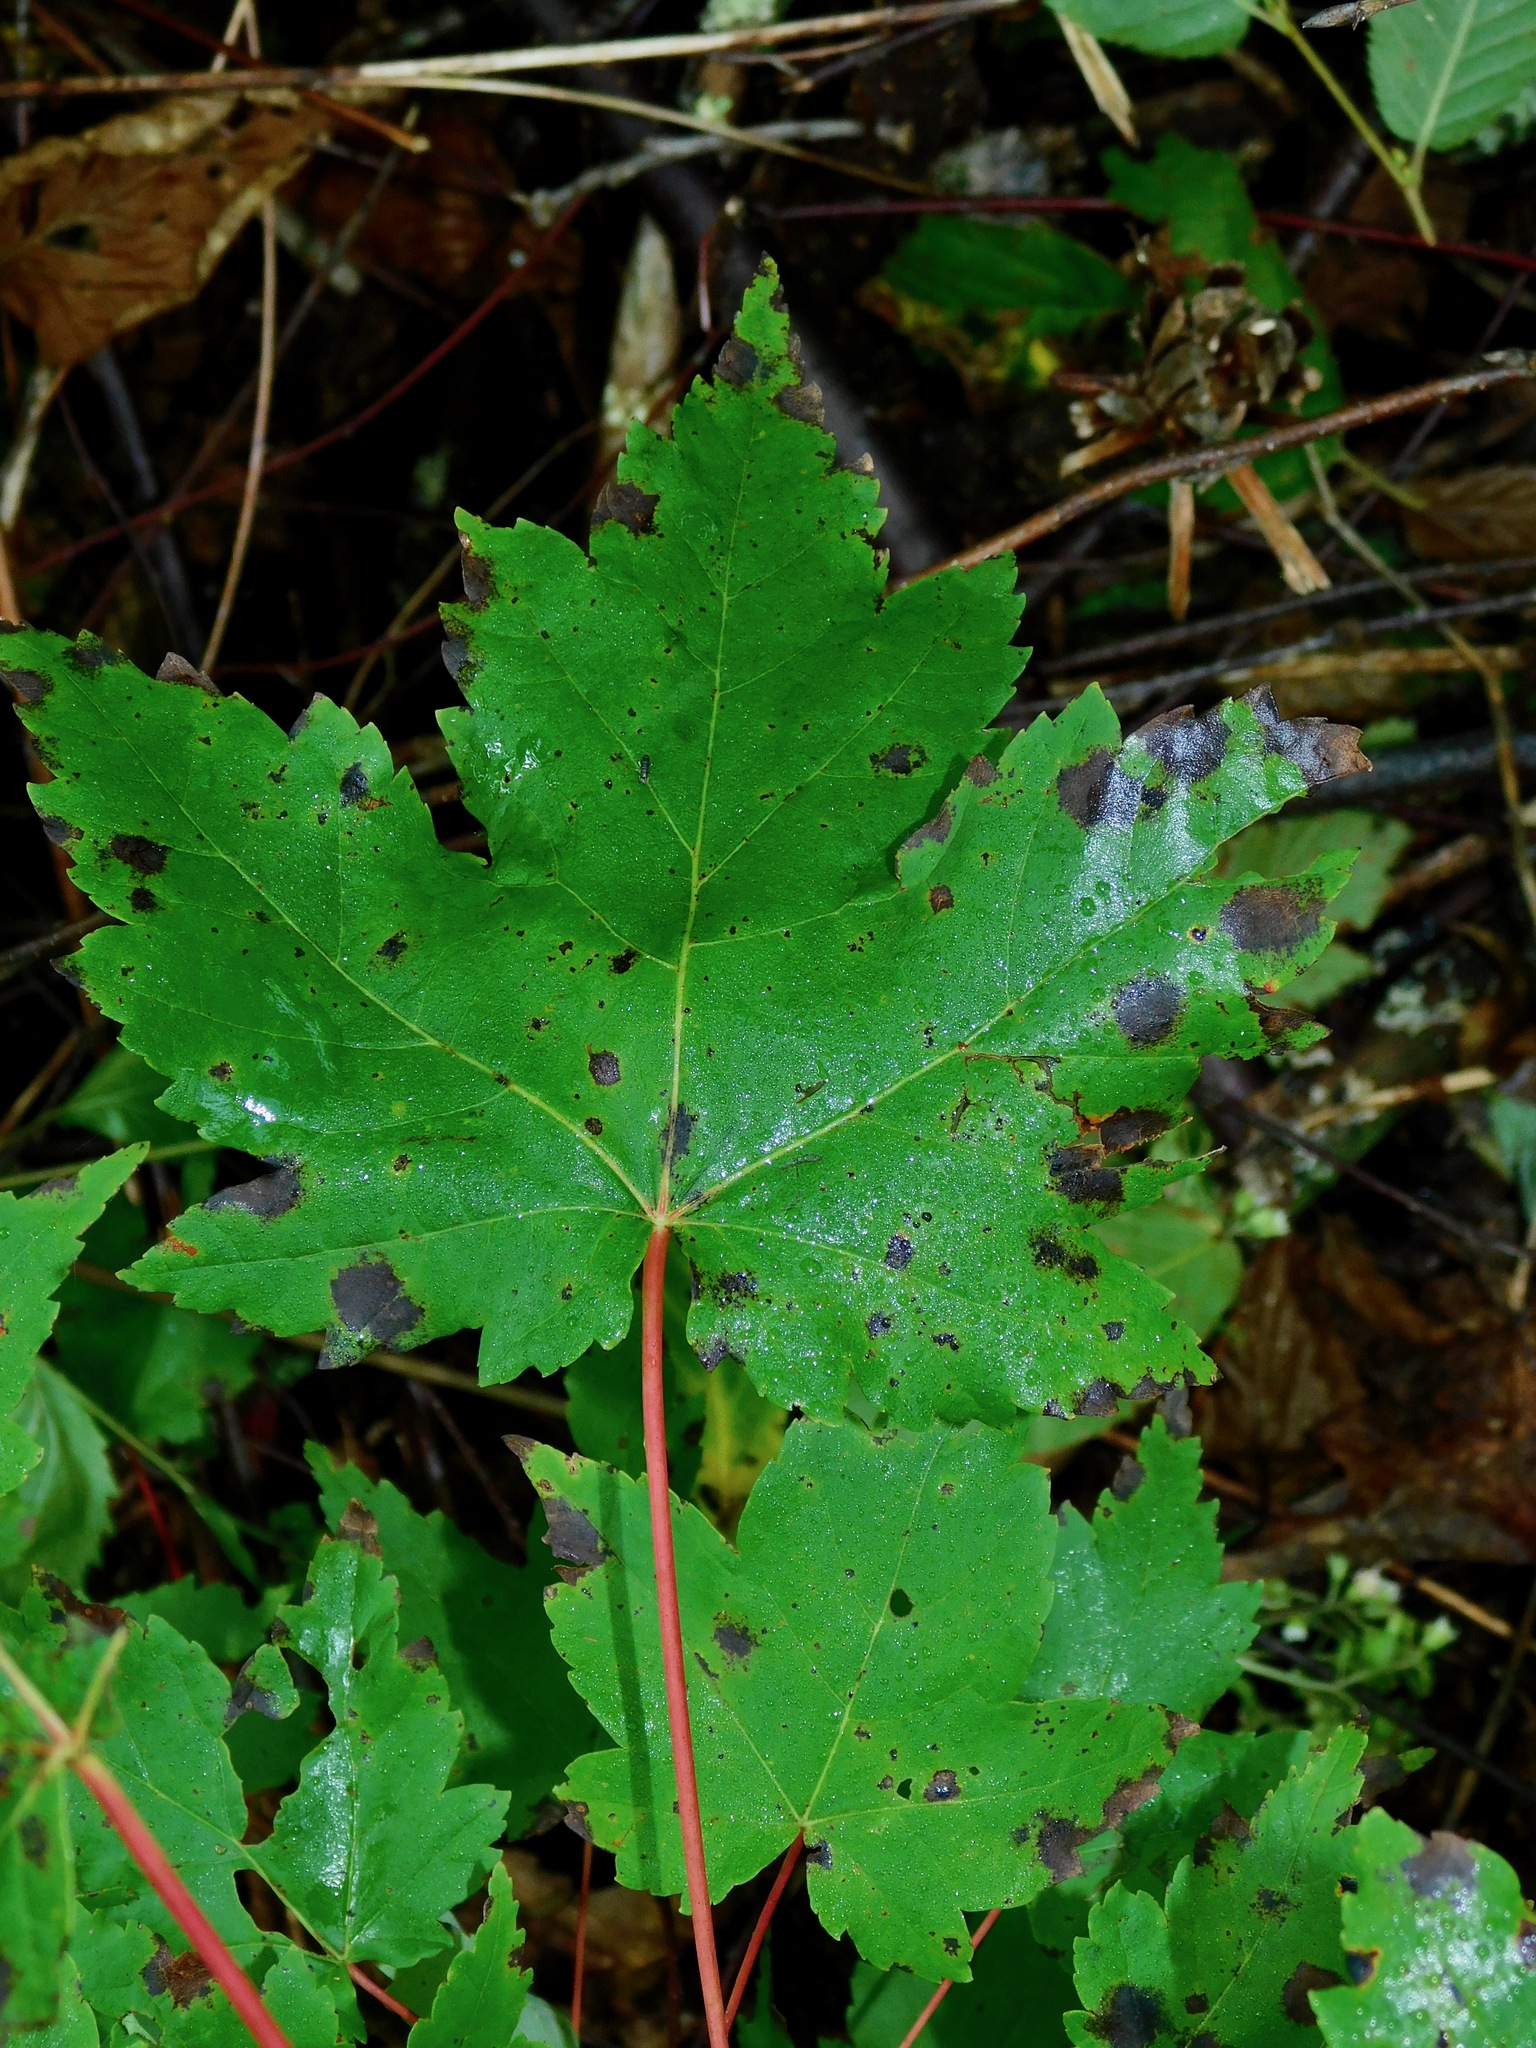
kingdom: Plantae
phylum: Tracheophyta
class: Magnoliopsida
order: Sapindales
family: Sapindaceae
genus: Acer
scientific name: Acer freemanii
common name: Freeman maple
